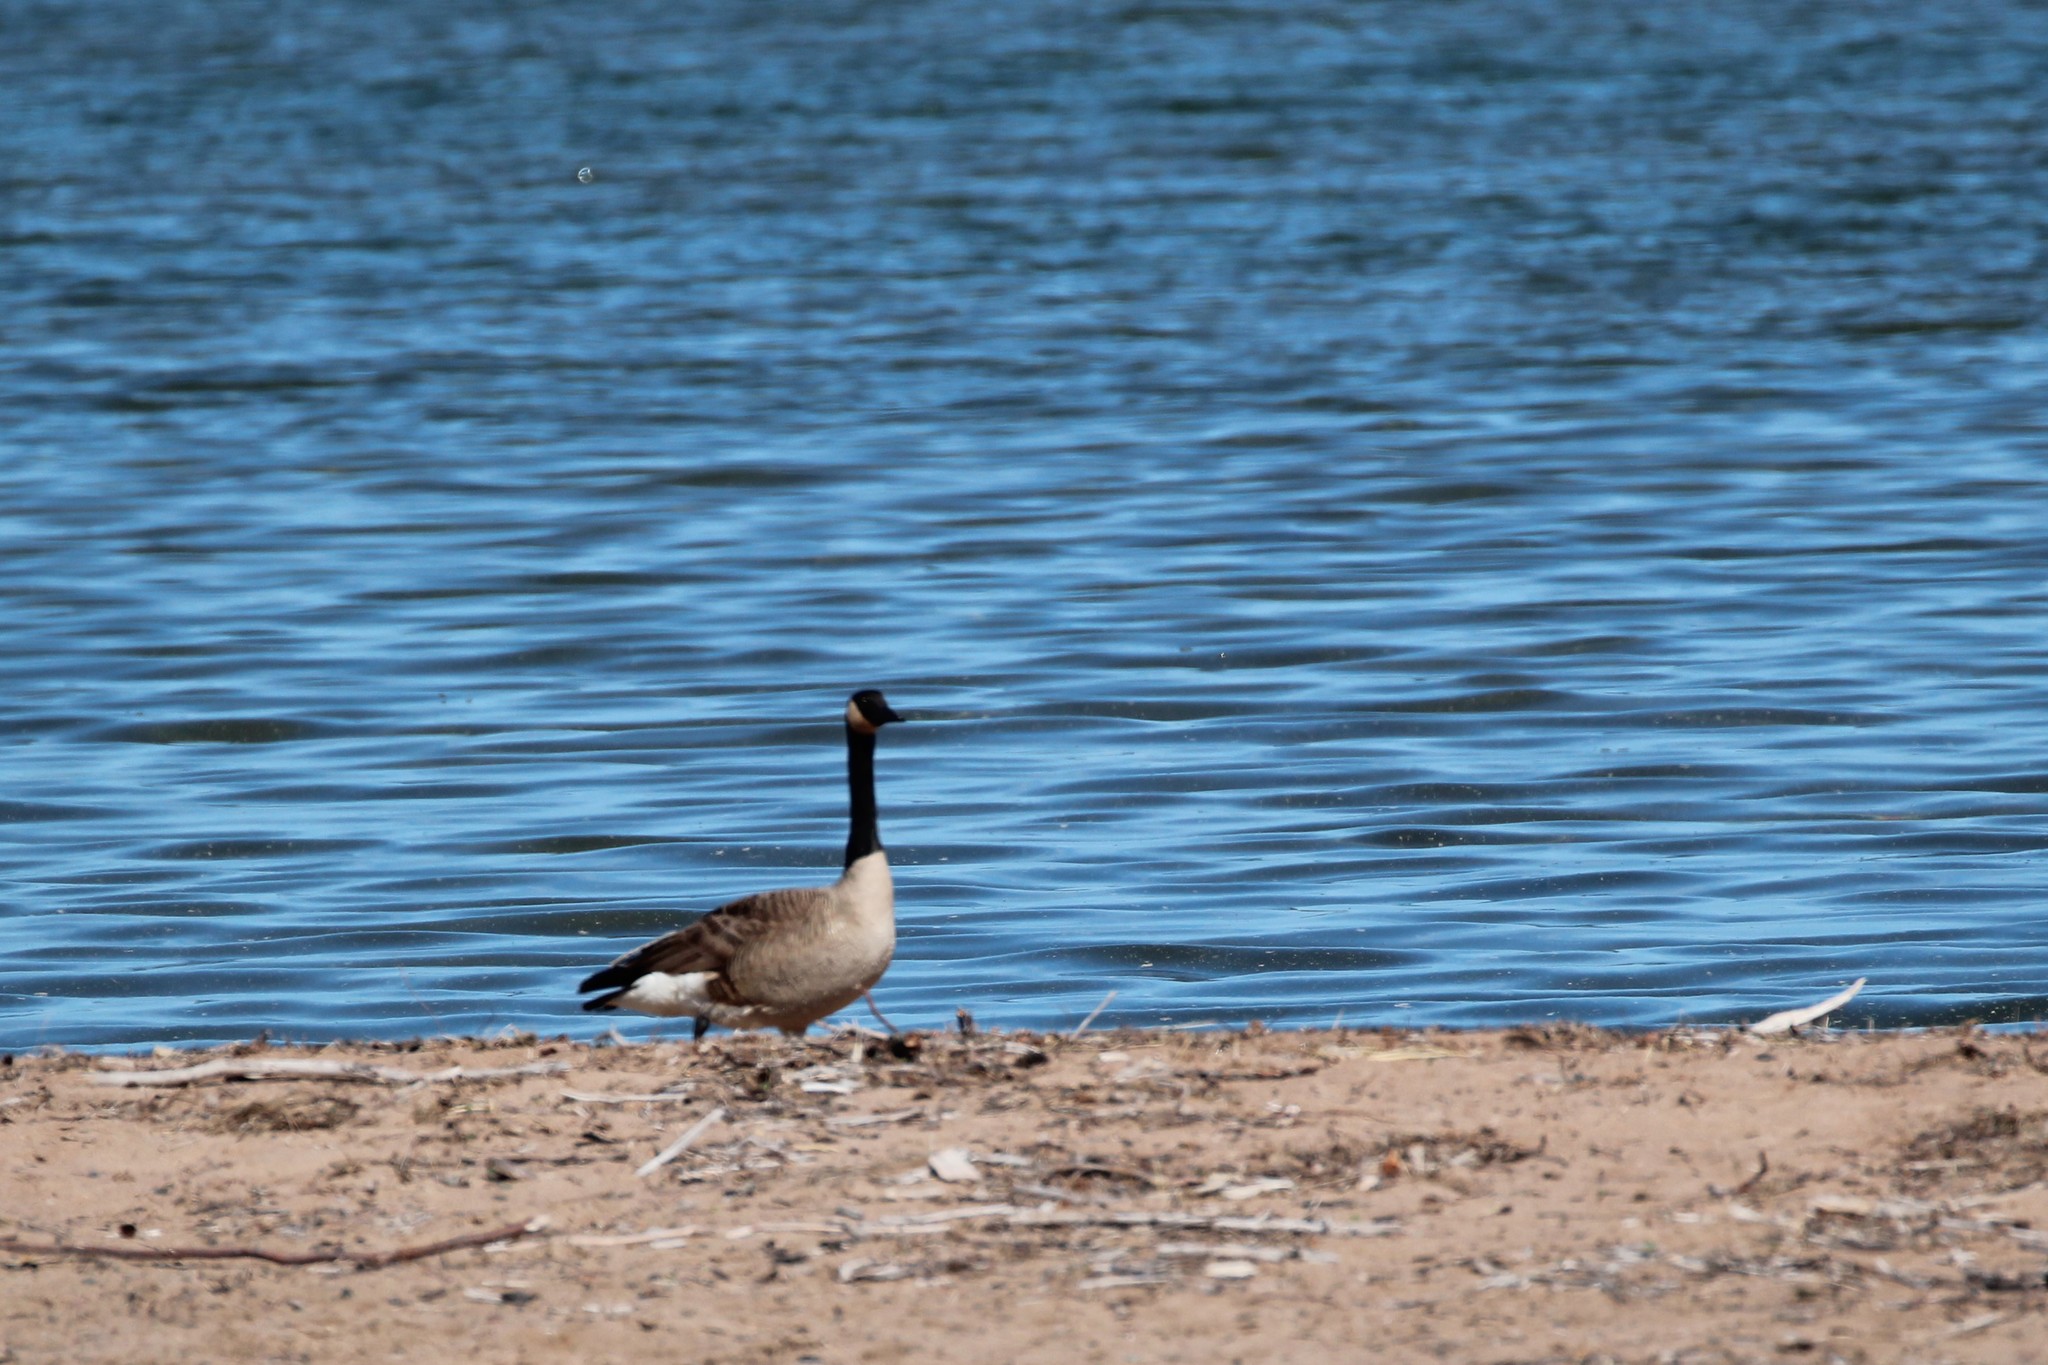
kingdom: Animalia
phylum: Chordata
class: Aves
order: Anseriformes
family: Anatidae
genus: Branta
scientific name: Branta canadensis
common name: Canada goose
